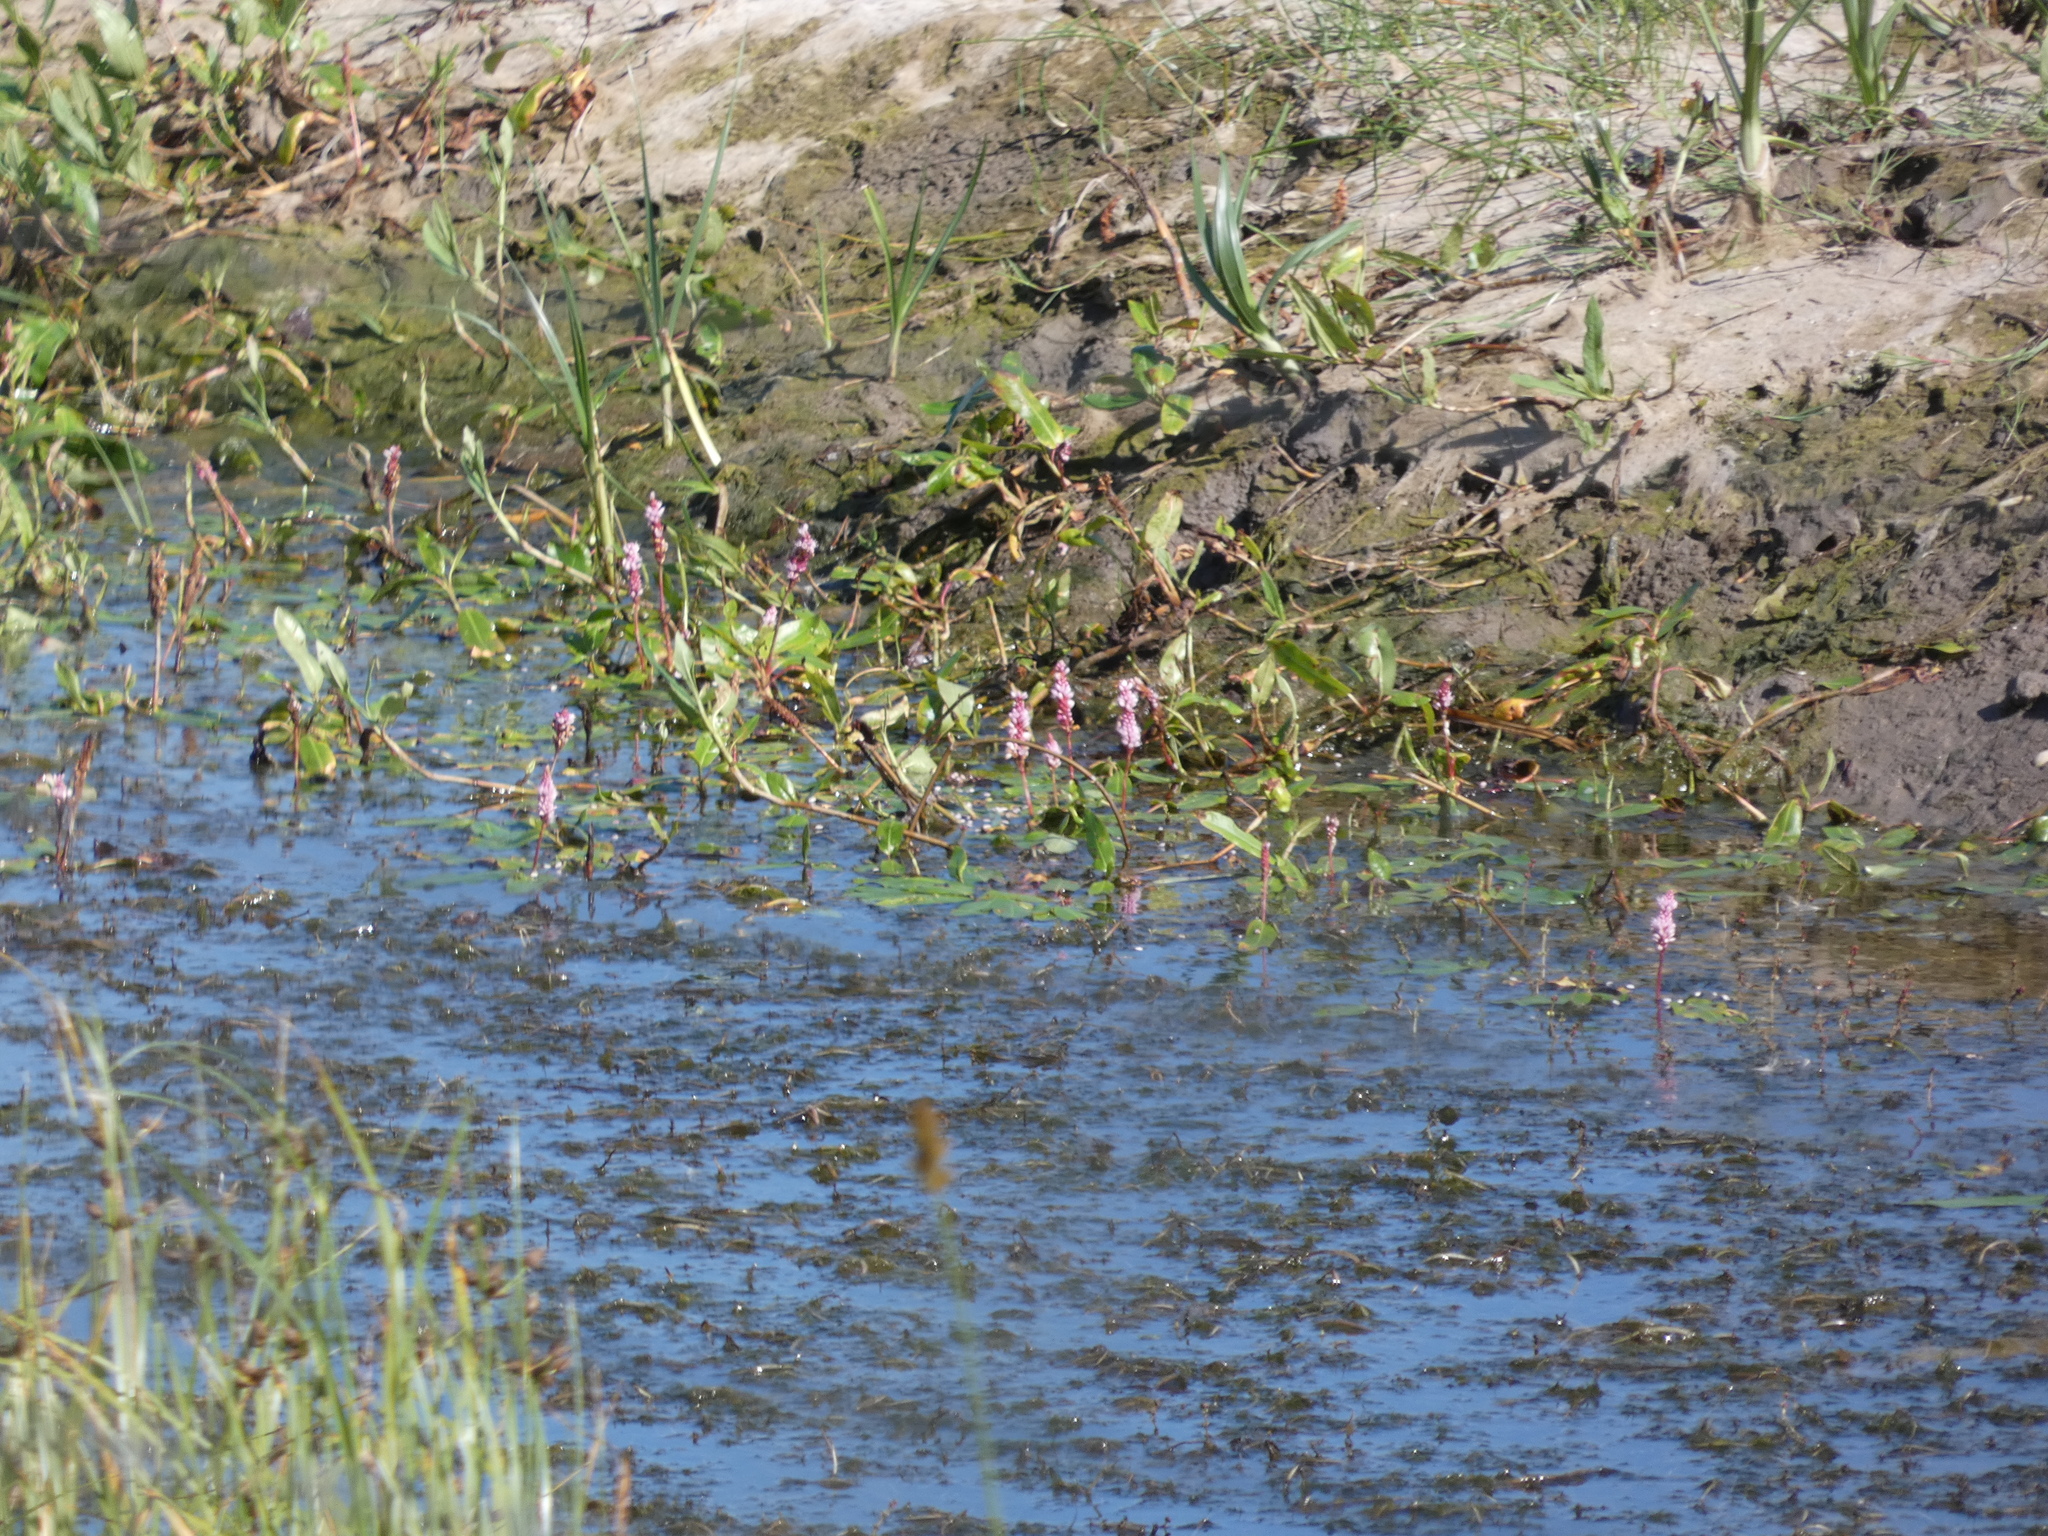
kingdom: Plantae
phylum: Tracheophyta
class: Magnoliopsida
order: Caryophyllales
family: Polygonaceae
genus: Persicaria
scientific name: Persicaria amphibia
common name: Amphibious bistort
